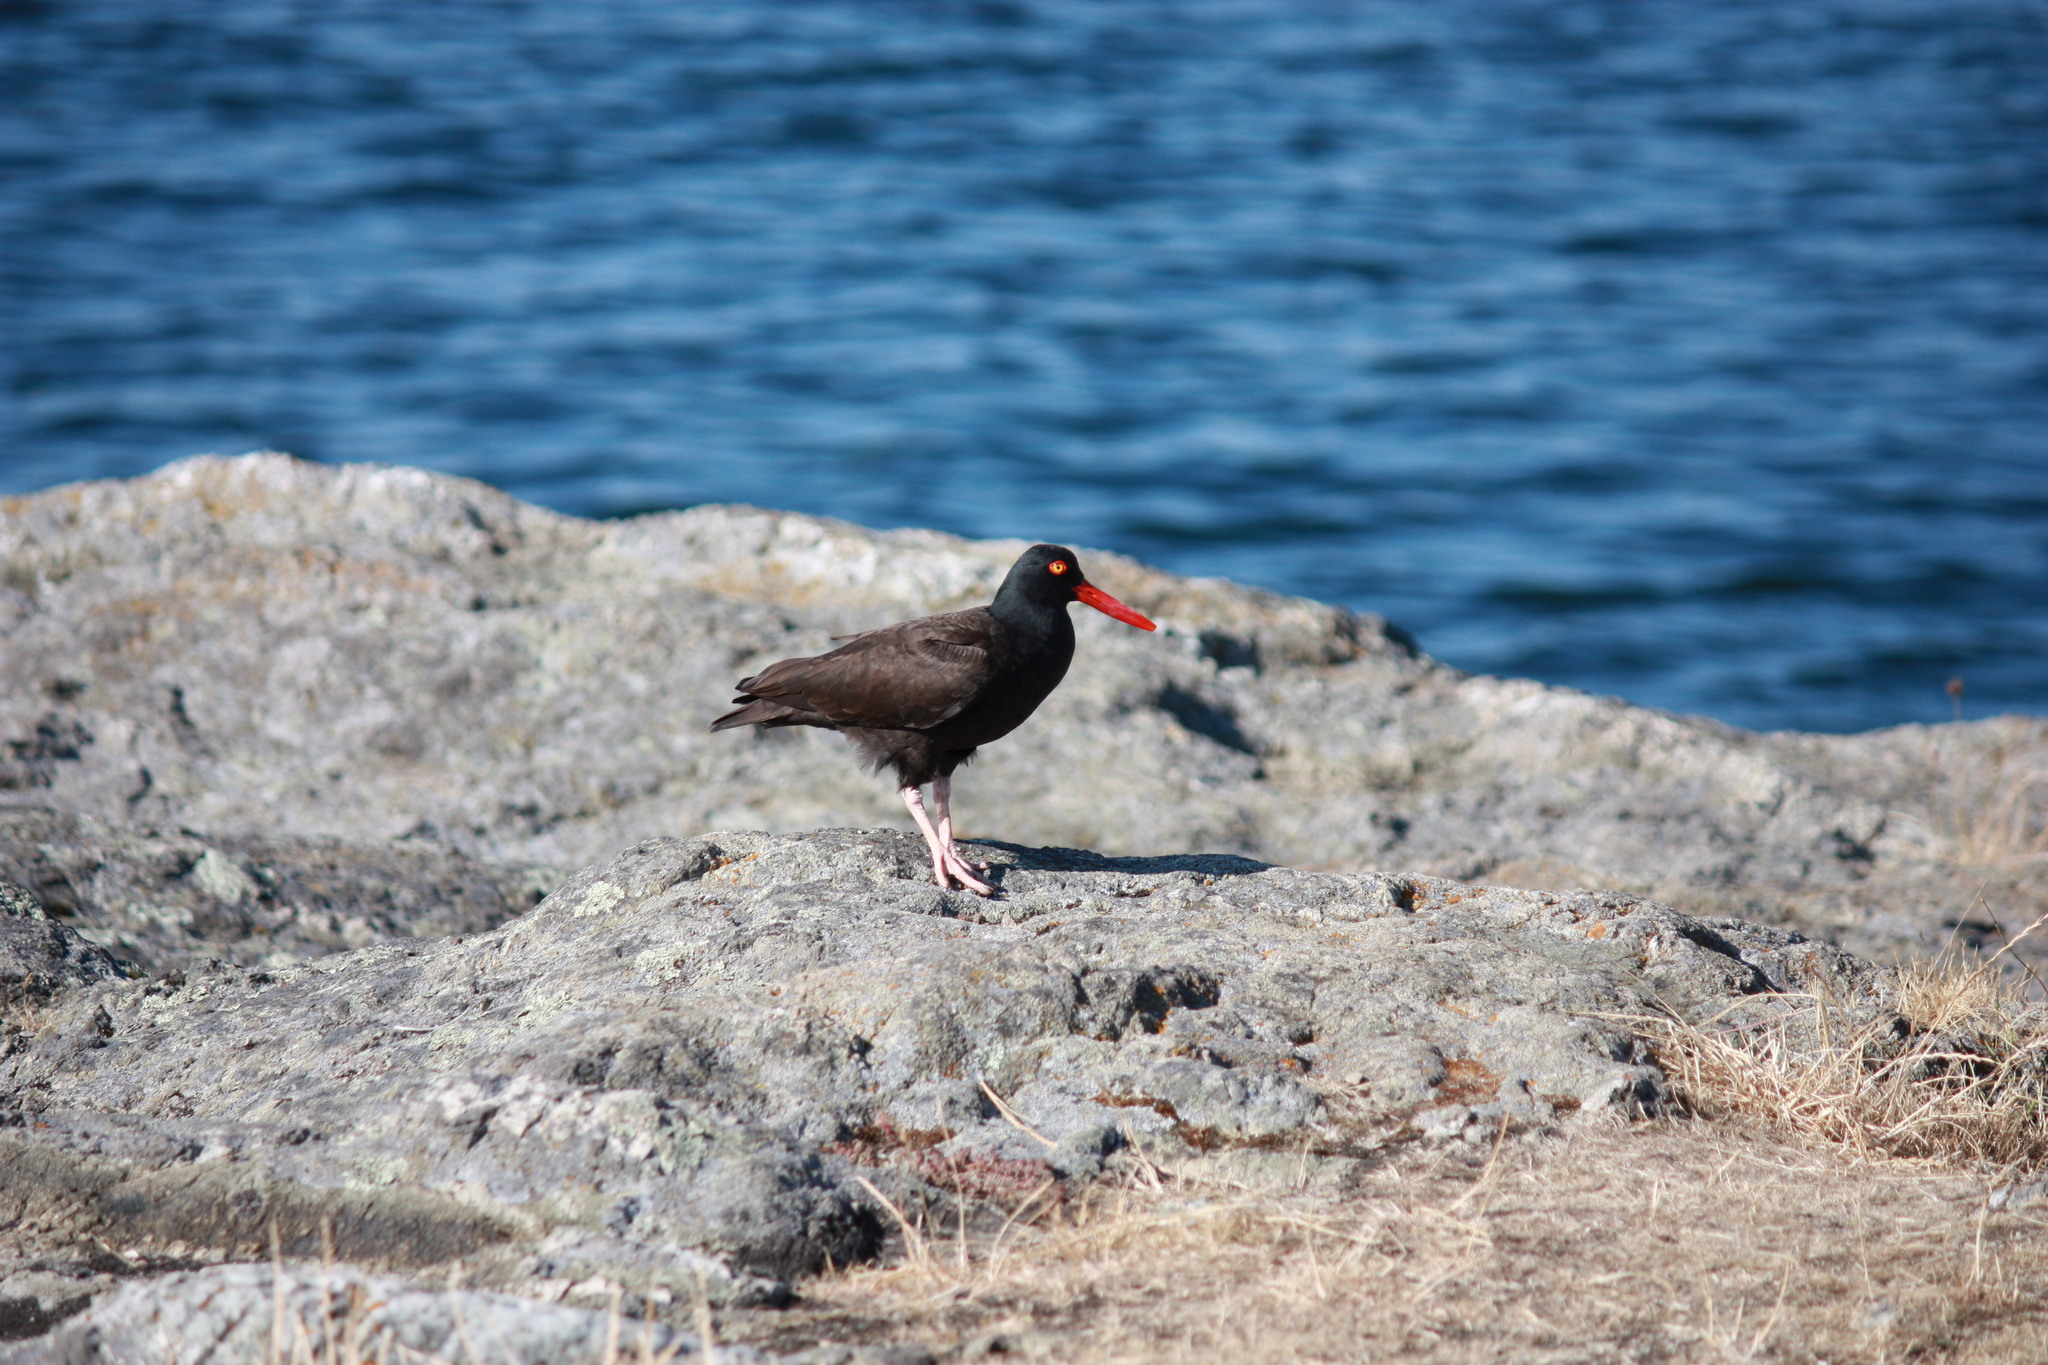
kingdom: Animalia
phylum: Chordata
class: Aves
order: Charadriiformes
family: Haematopodidae
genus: Haematopus
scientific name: Haematopus bachmani
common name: Black oystercatcher
